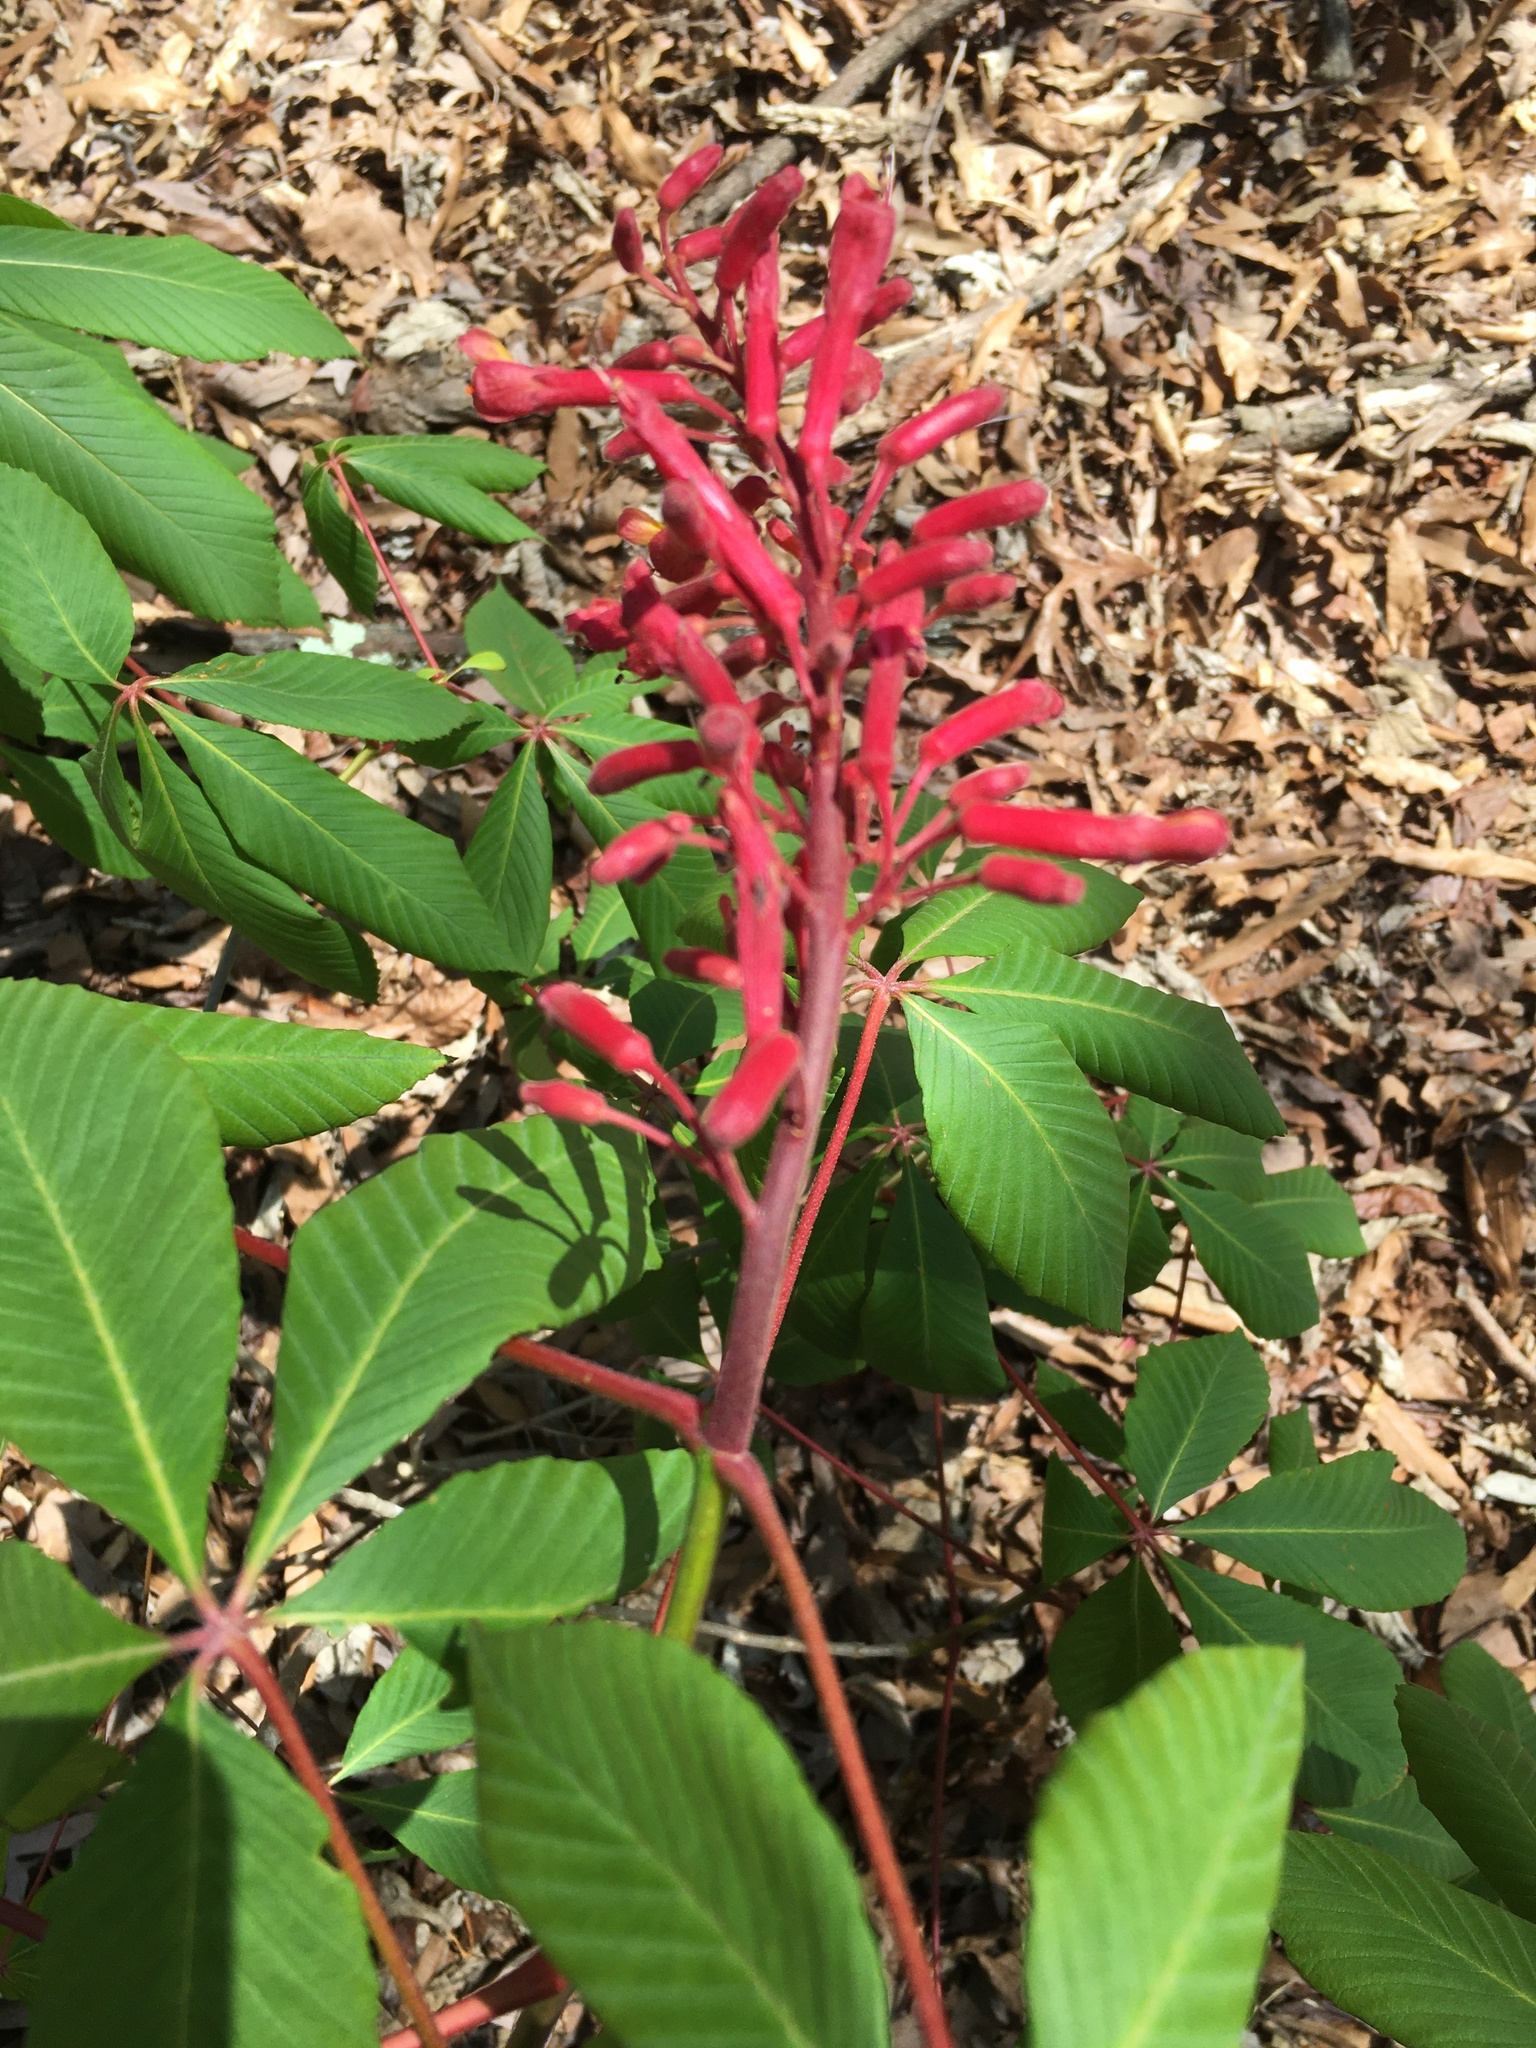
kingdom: Plantae
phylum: Tracheophyta
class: Magnoliopsida
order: Sapindales
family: Sapindaceae
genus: Aesculus
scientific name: Aesculus pavia
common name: Red buckeye
